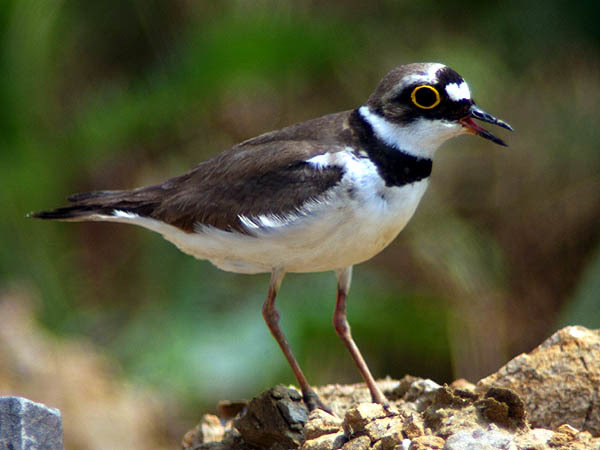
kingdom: Animalia
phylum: Chordata
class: Aves
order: Charadriiformes
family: Charadriidae
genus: Charadrius
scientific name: Charadrius dubius
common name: Little ringed plover
